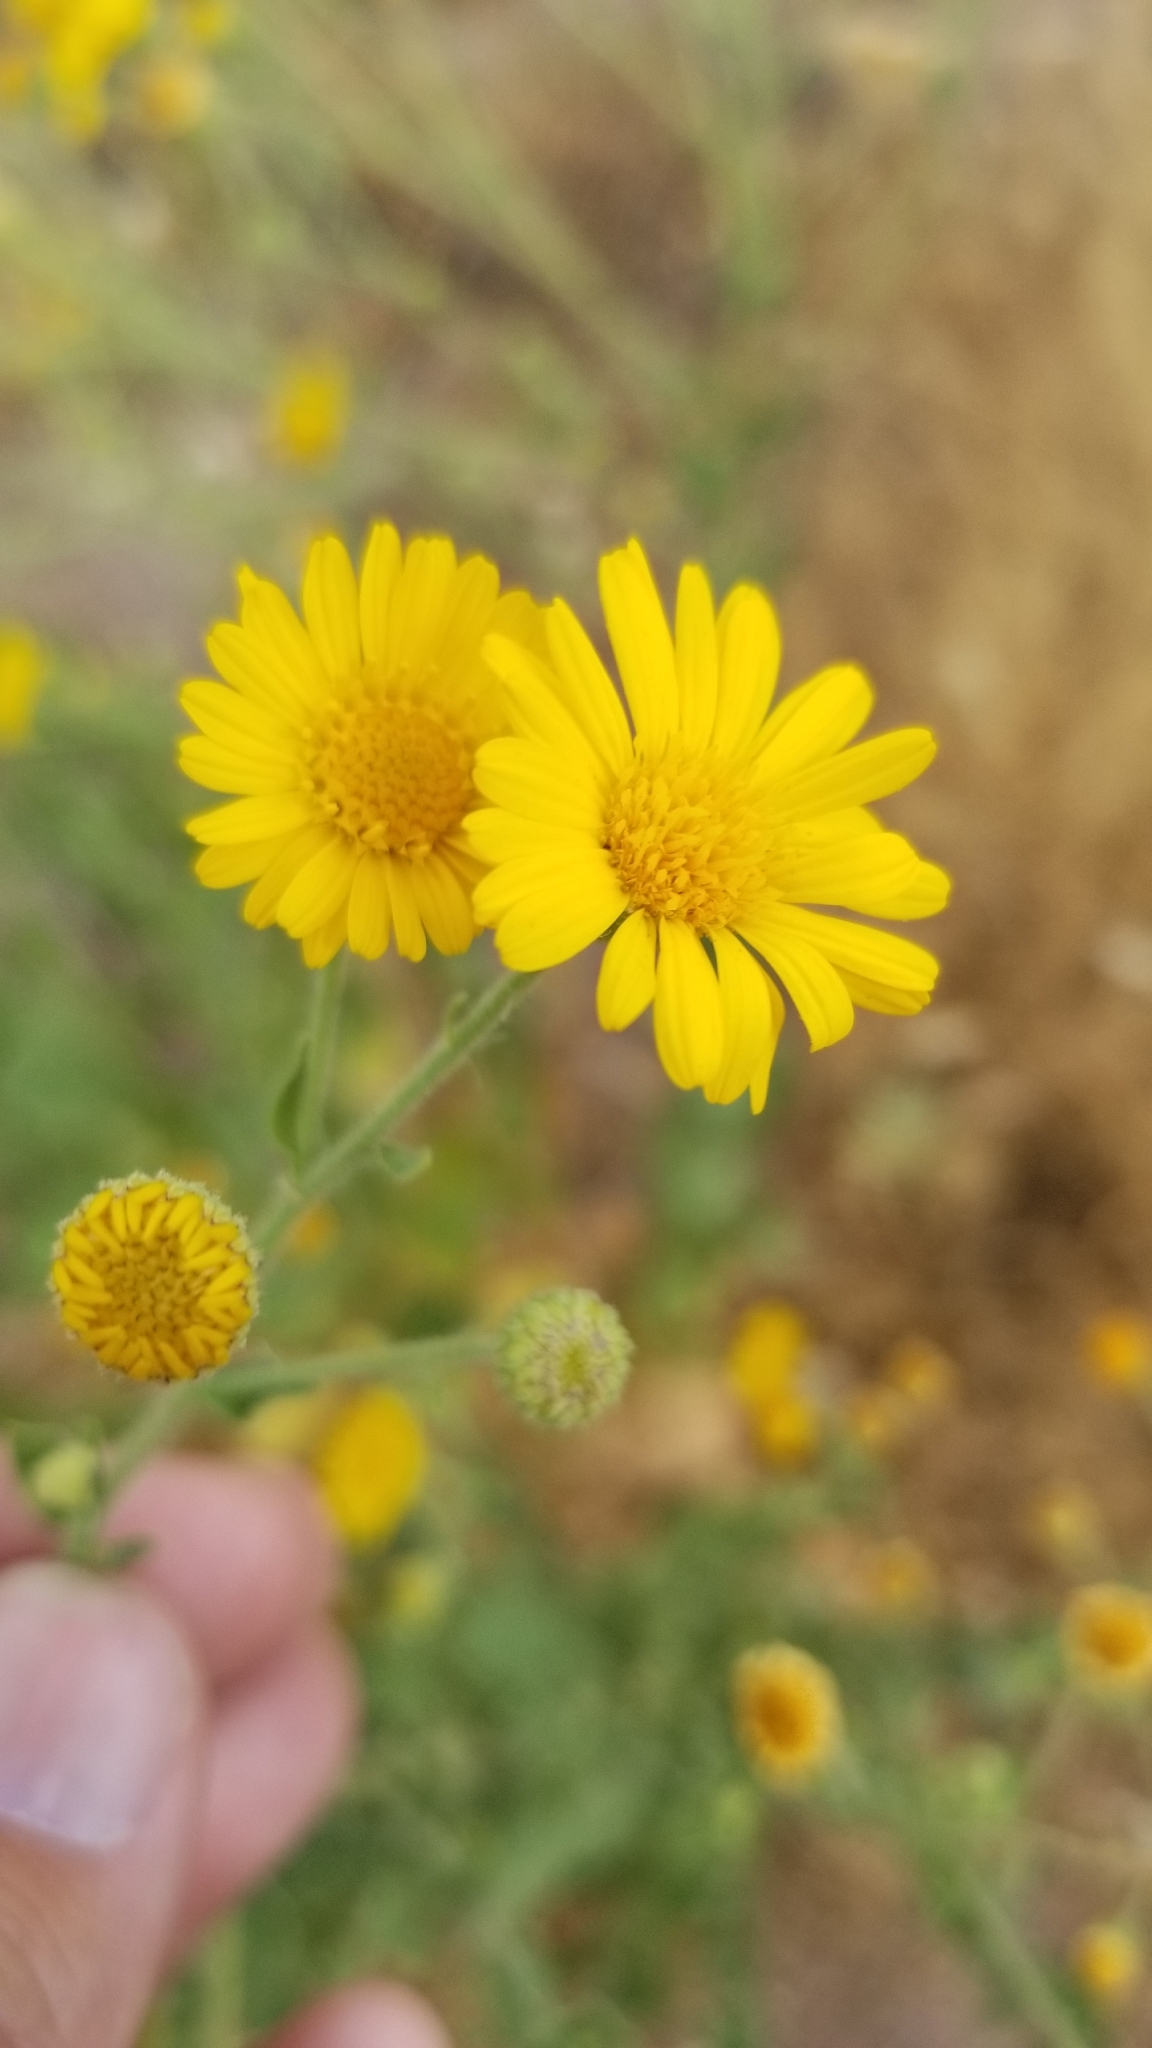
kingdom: Plantae
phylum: Tracheophyta
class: Magnoliopsida
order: Asterales
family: Asteraceae
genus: Heterotheca
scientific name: Heterotheca subaxillaris
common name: Camphorweed
